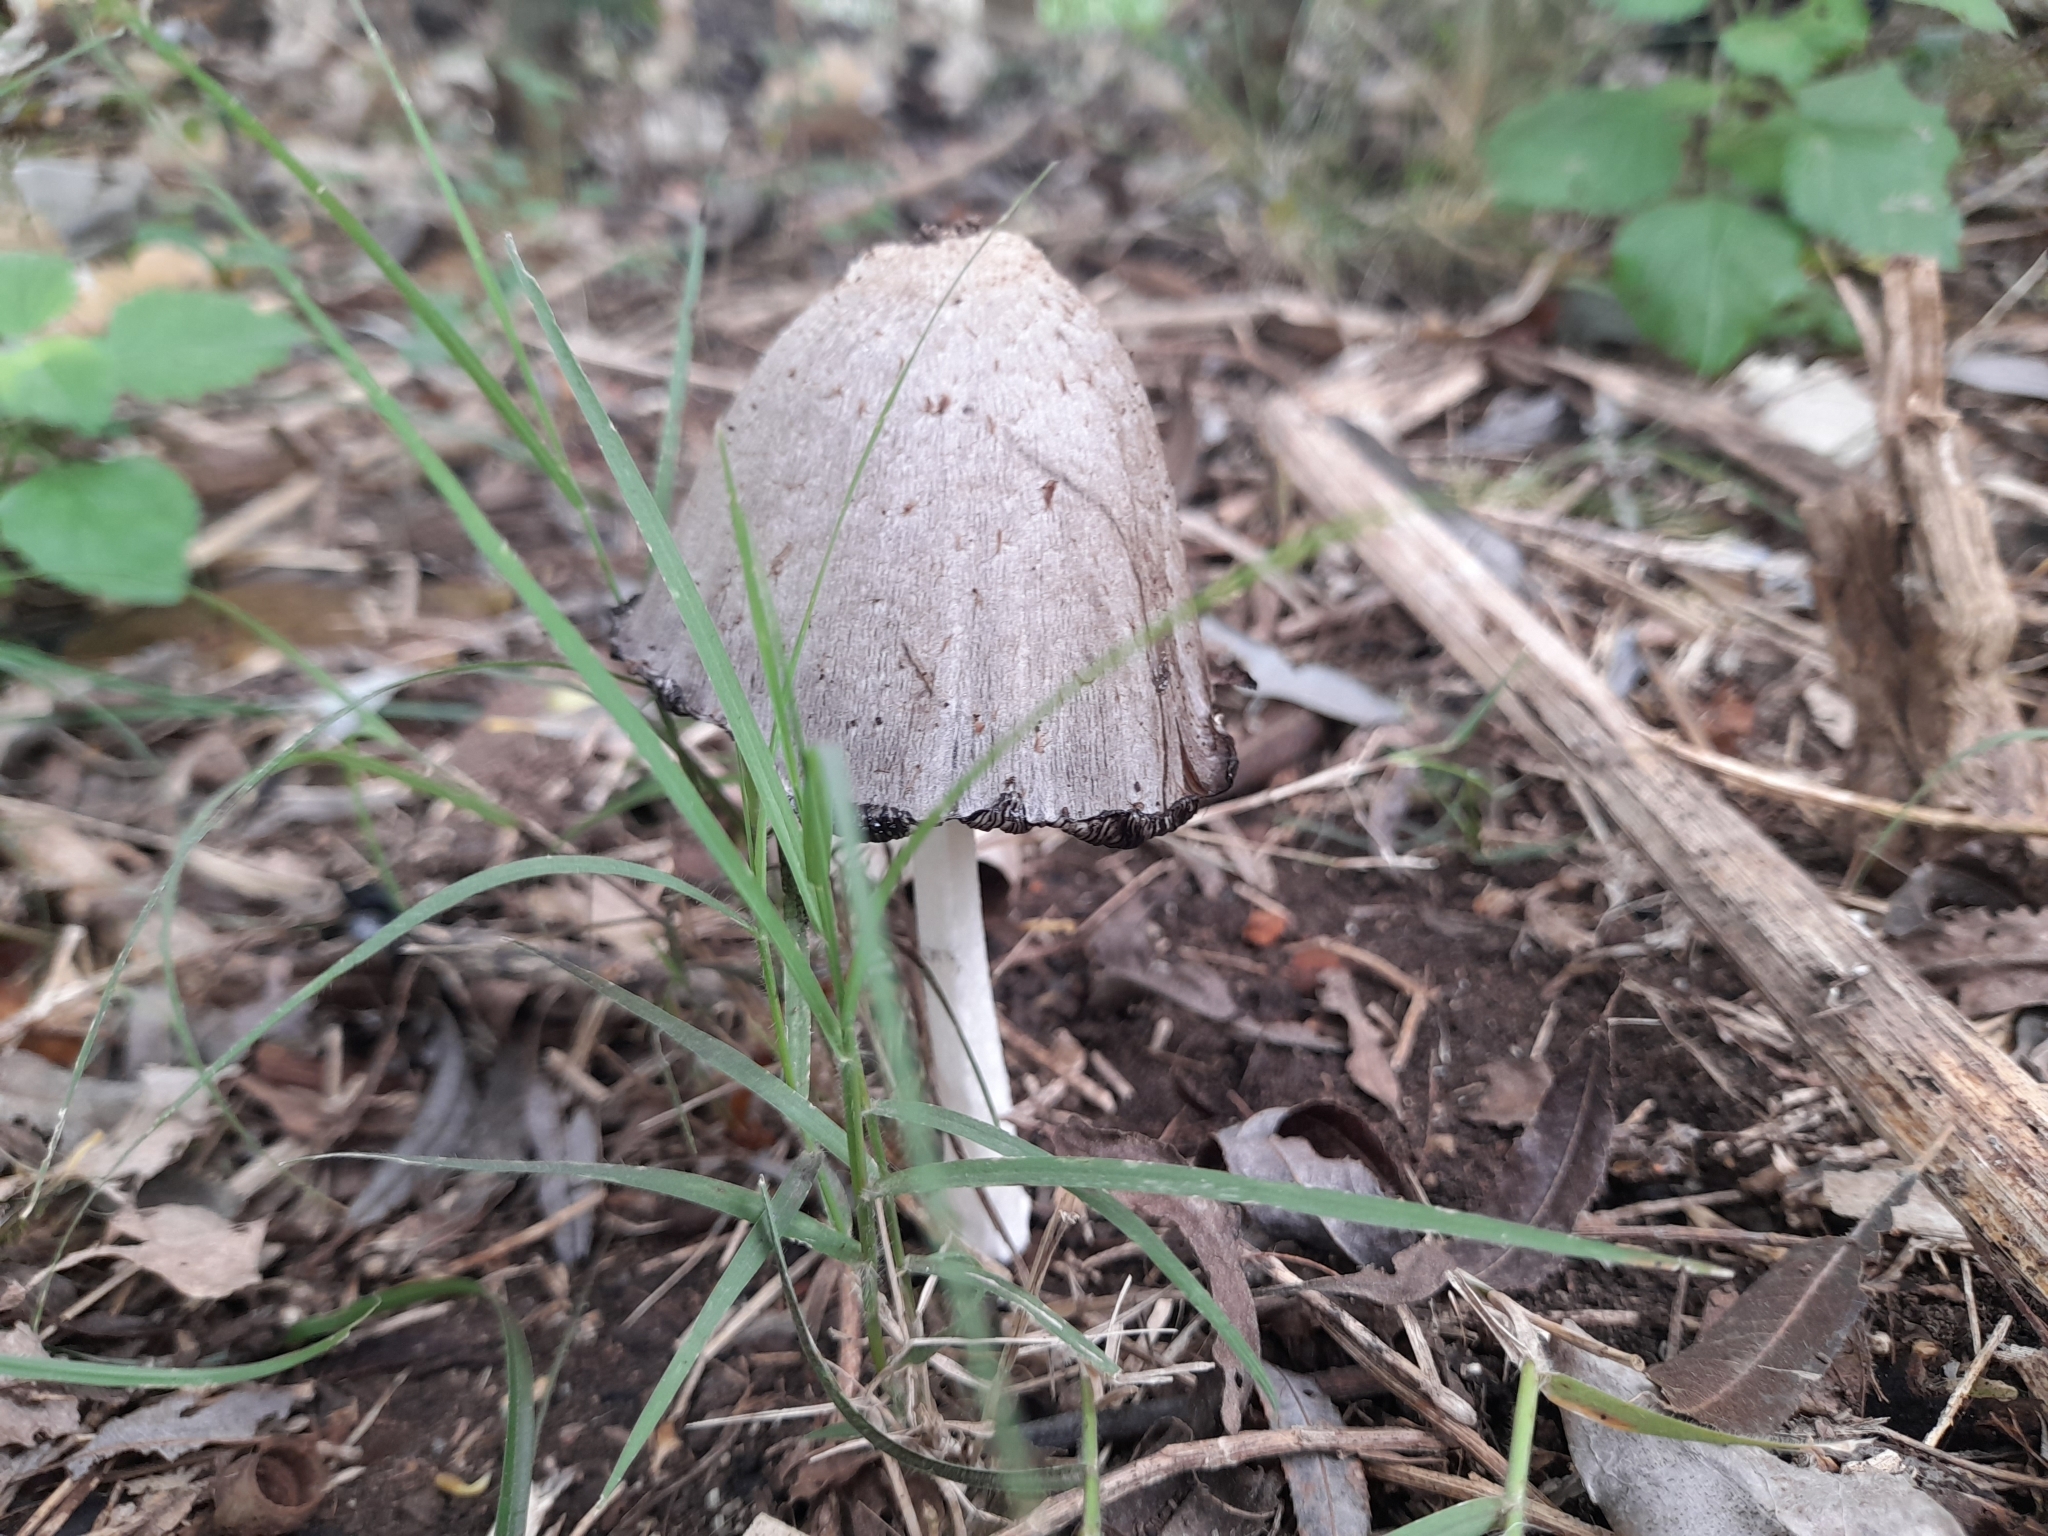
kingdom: Fungi
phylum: Basidiomycota
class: Agaricomycetes
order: Agaricales
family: Agaricaceae
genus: Coprinus
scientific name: Coprinus comatus
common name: Lawyer's wig
